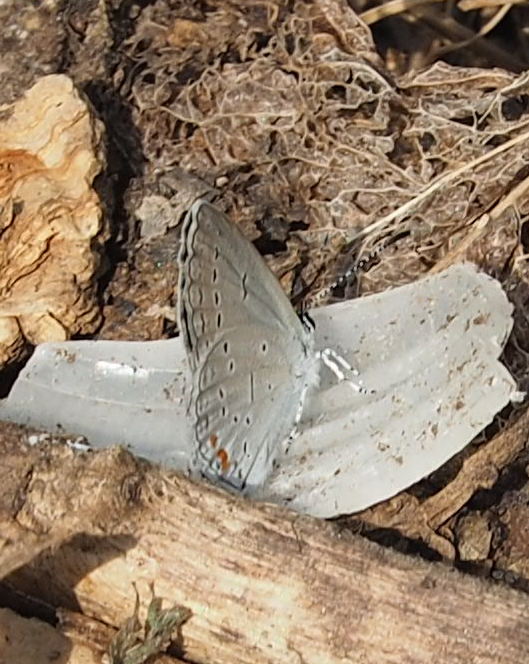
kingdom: Animalia
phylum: Arthropoda
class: Insecta
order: Lepidoptera
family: Lycaenidae
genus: Elkalyce
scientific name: Elkalyce comyntas
